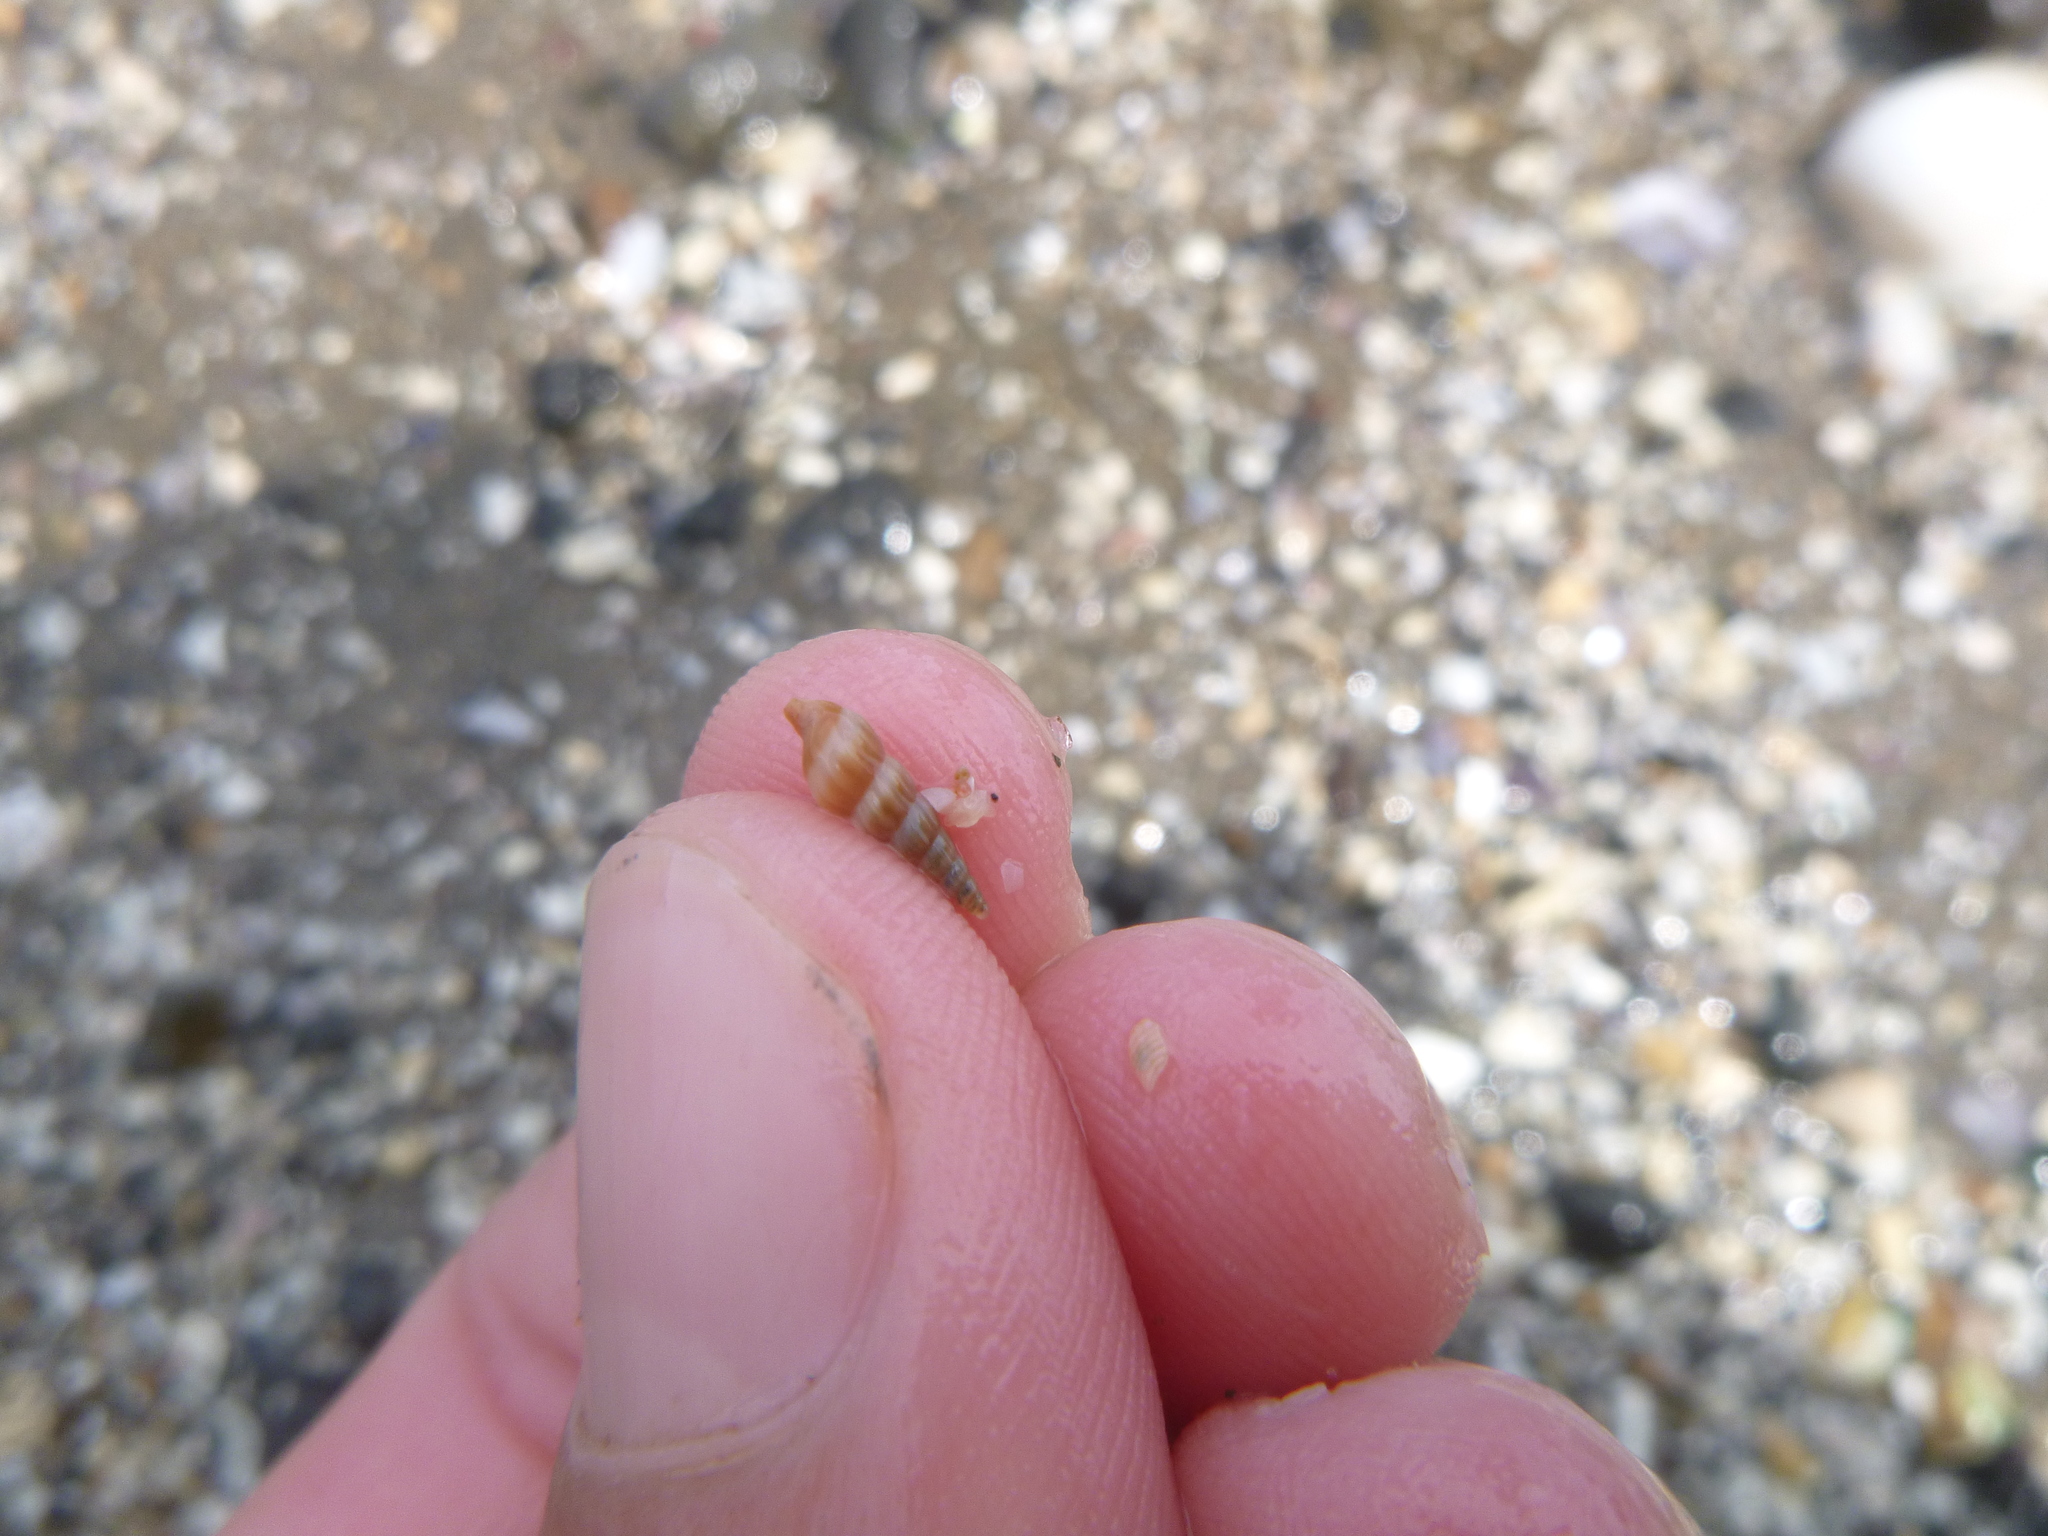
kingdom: Animalia
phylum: Mollusca
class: Gastropoda
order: Neogastropoda
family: Terebridae
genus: Duplicaria
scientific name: Duplicaria tristis
